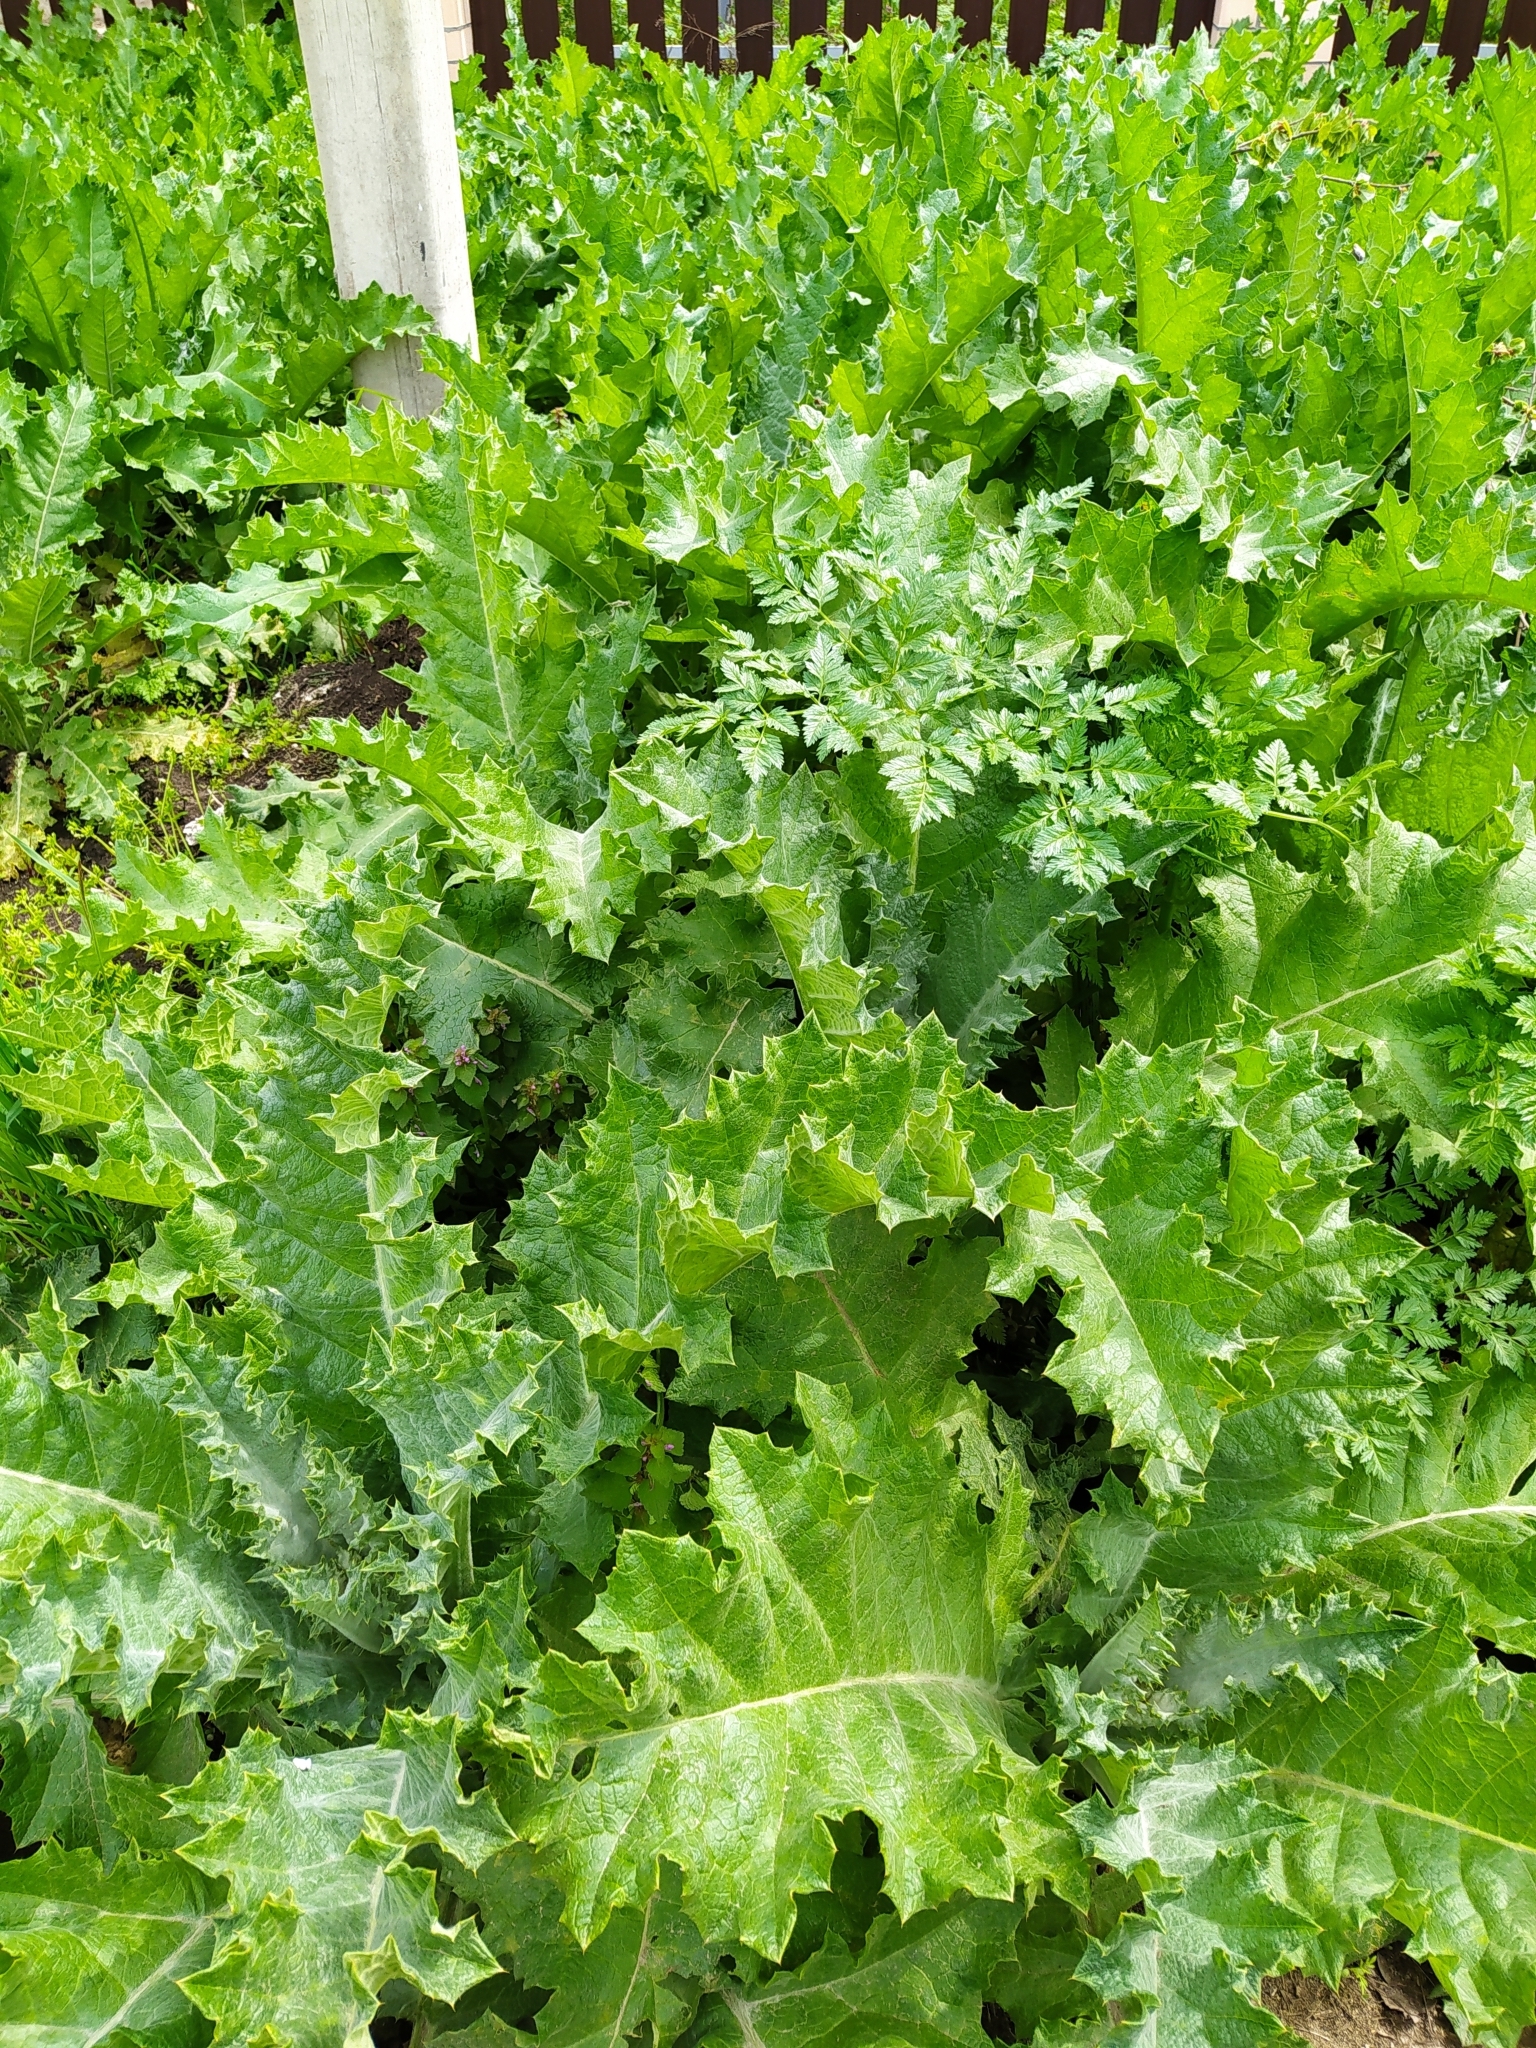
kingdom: Plantae
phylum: Tracheophyta
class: Magnoliopsida
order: Asterales
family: Asteraceae
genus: Onopordum
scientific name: Onopordum acanthium
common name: Scotch thistle
